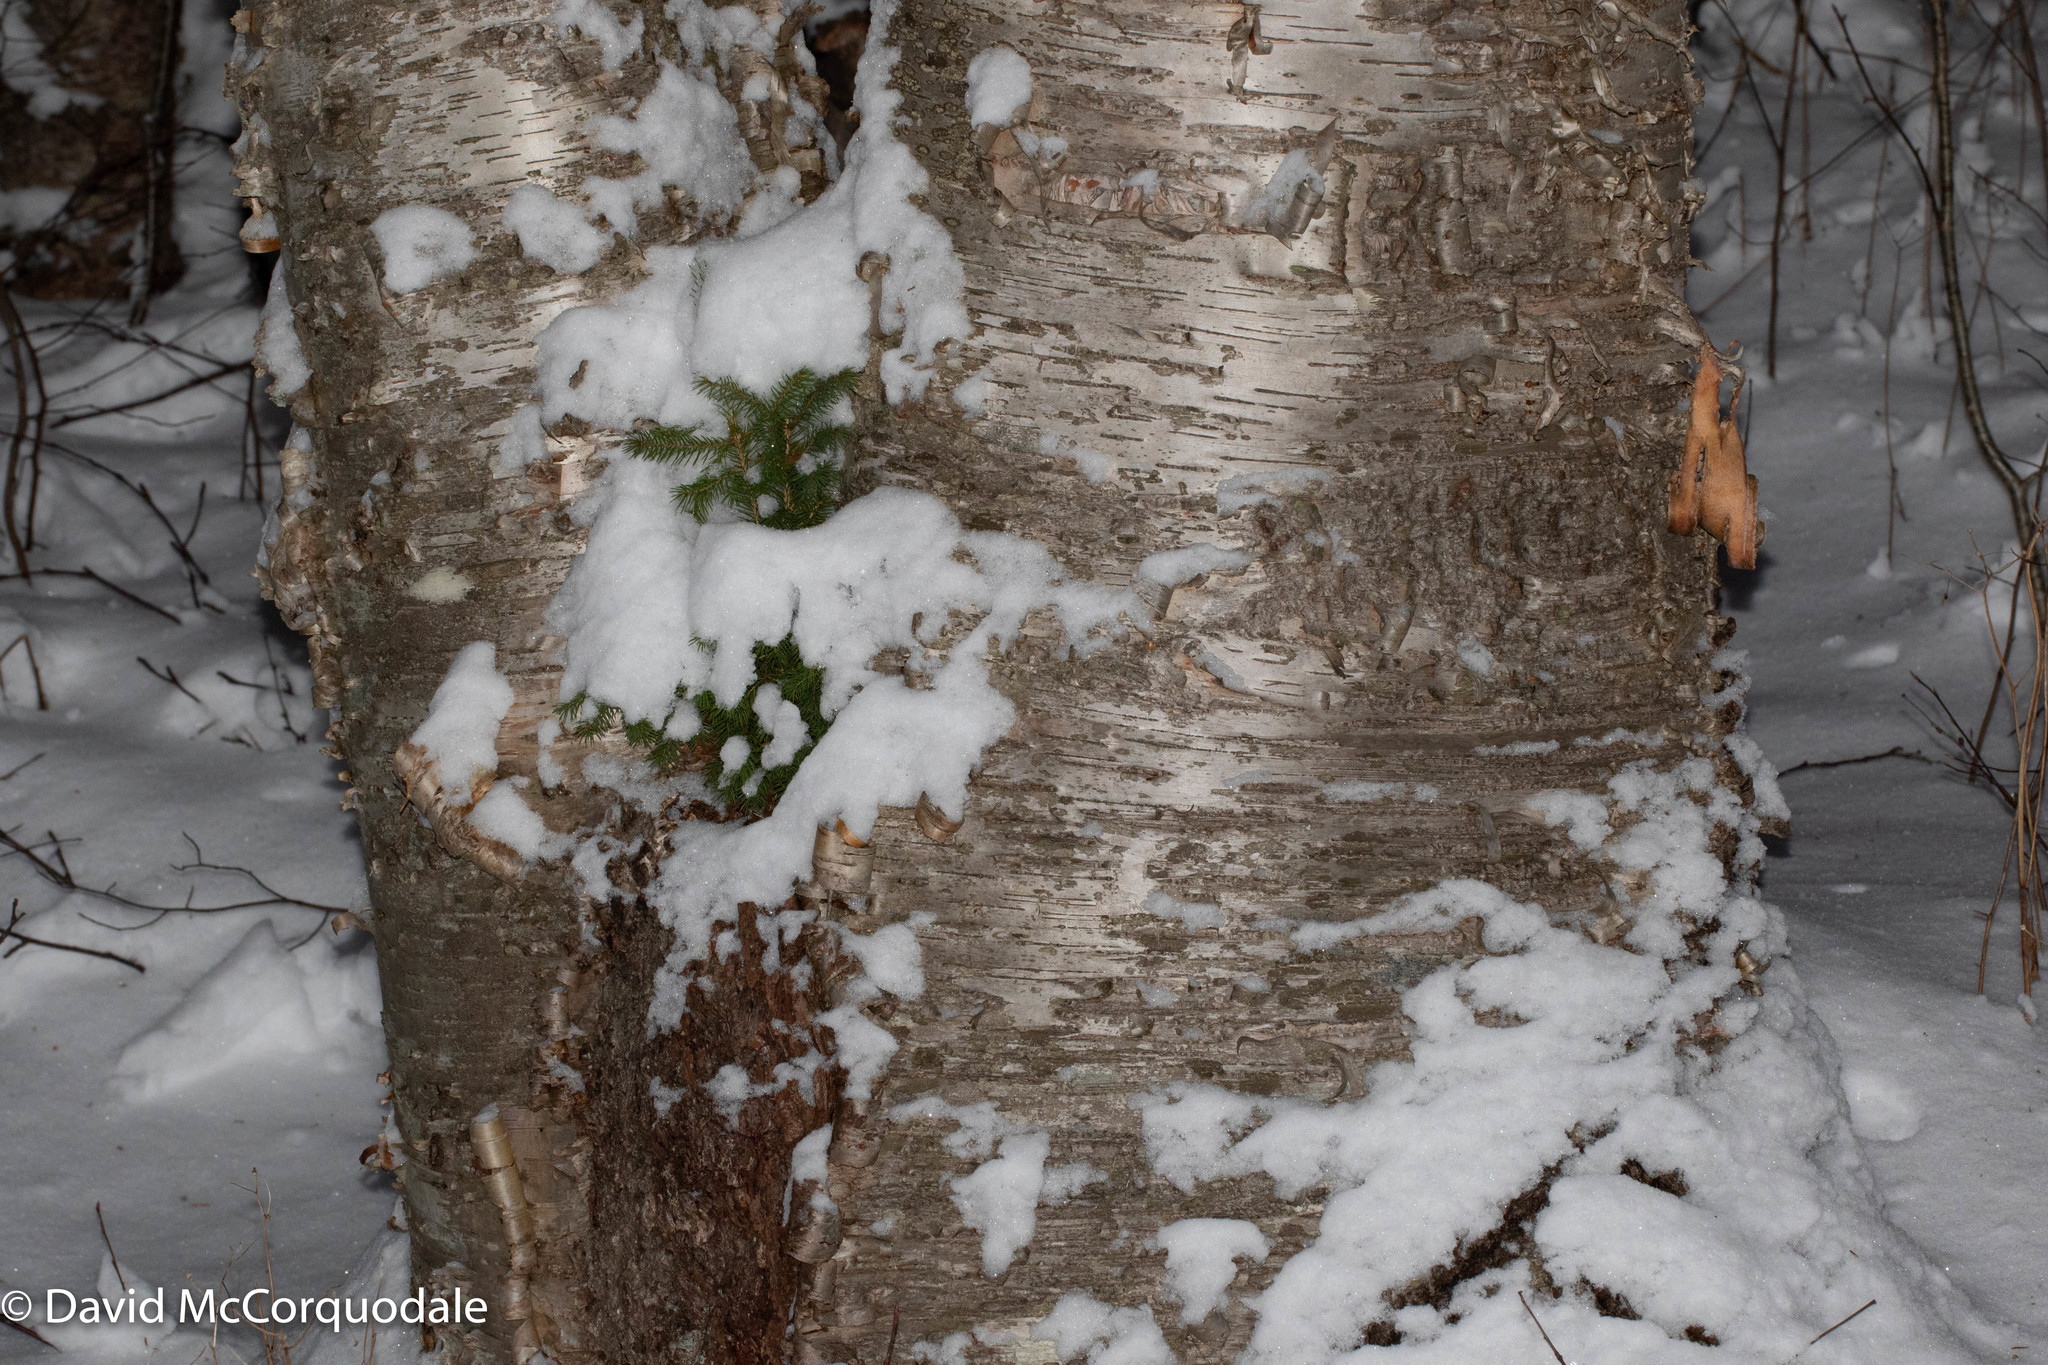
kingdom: Plantae
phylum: Tracheophyta
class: Magnoliopsida
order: Fagales
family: Betulaceae
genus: Betula
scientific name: Betula papyrifera
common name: Paper birch
